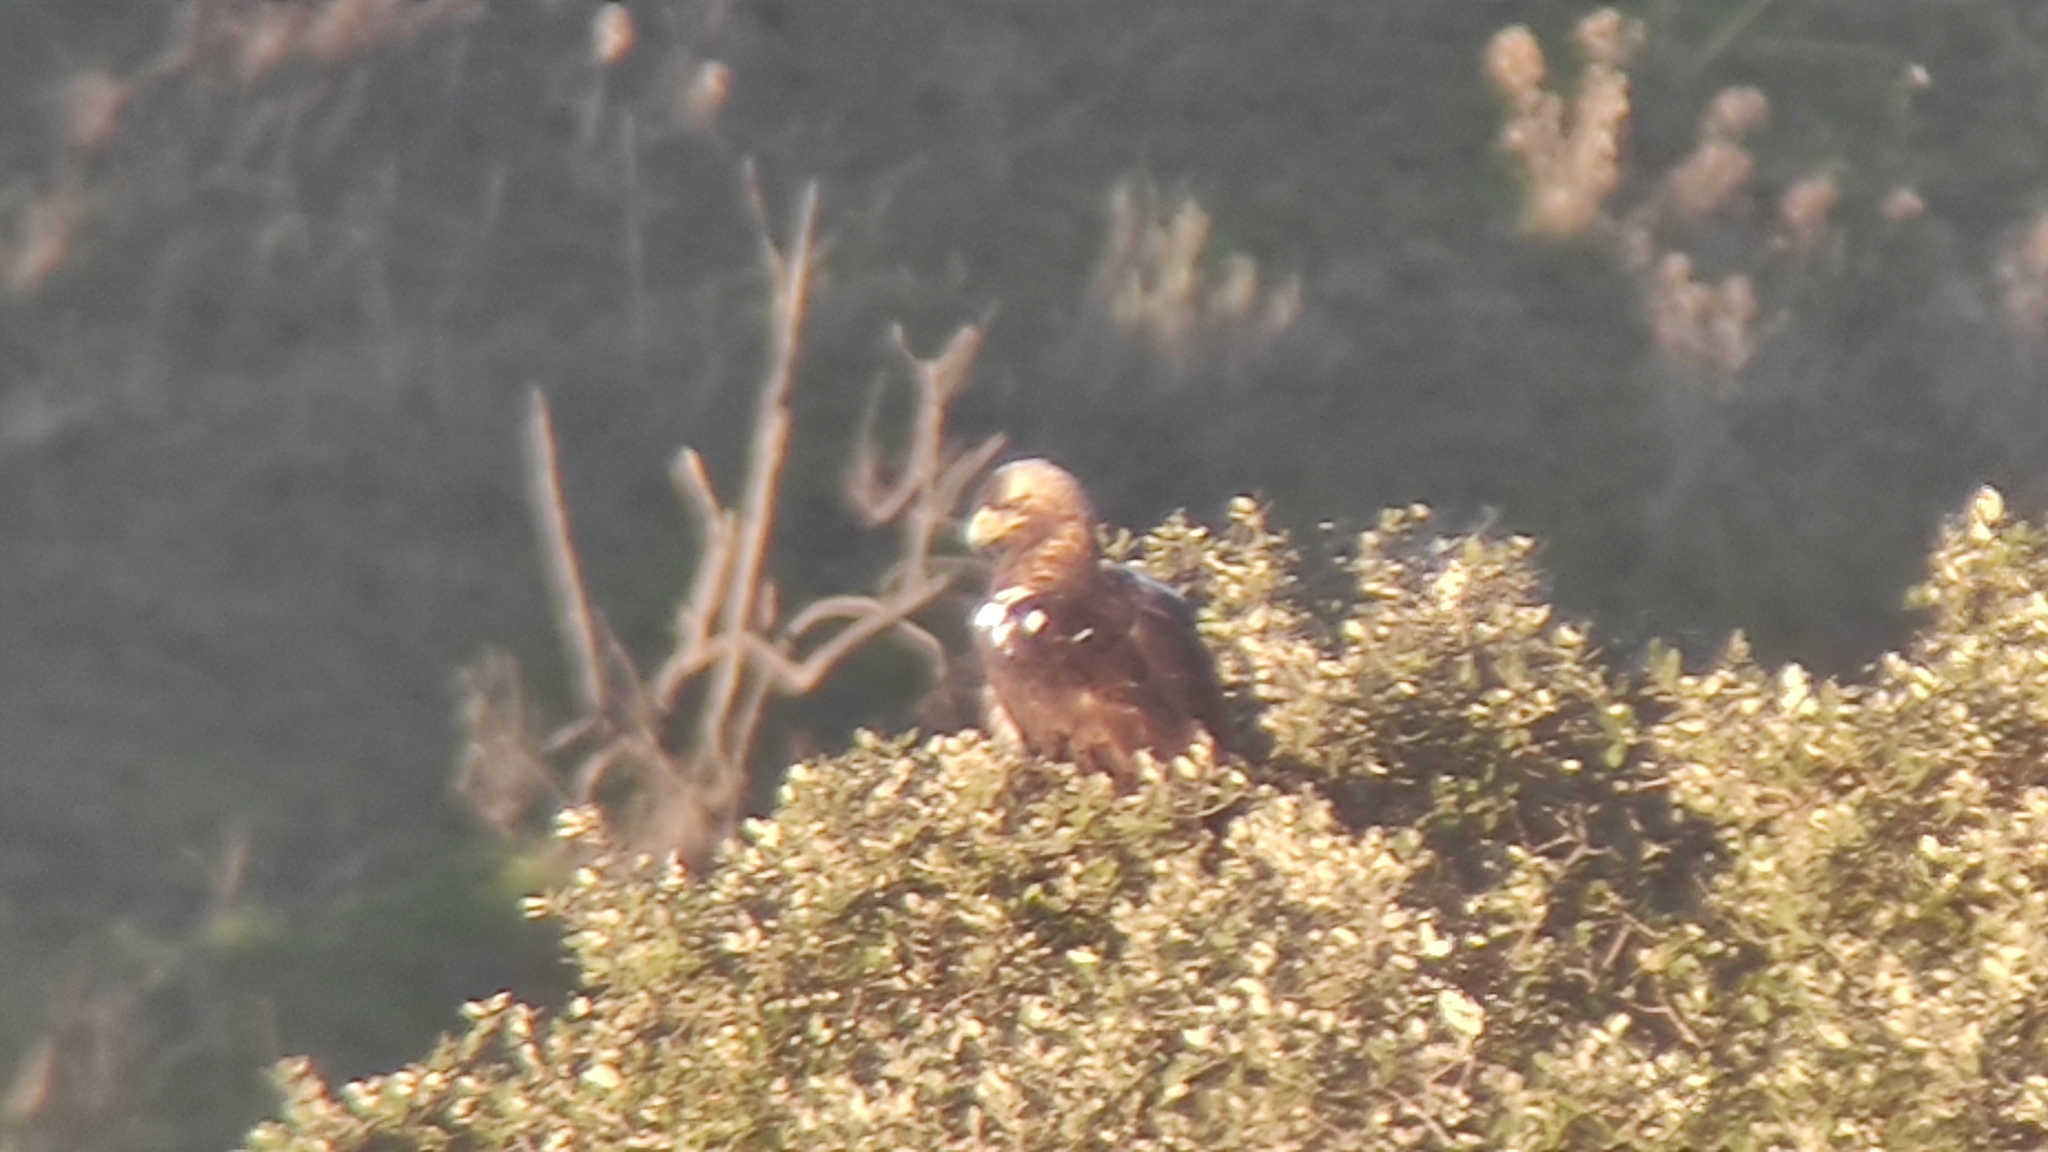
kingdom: Animalia
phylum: Chordata
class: Aves
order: Accipitriformes
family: Accipitridae
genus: Aquila
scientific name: Aquila adalberti
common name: Spanish imperial eagle
